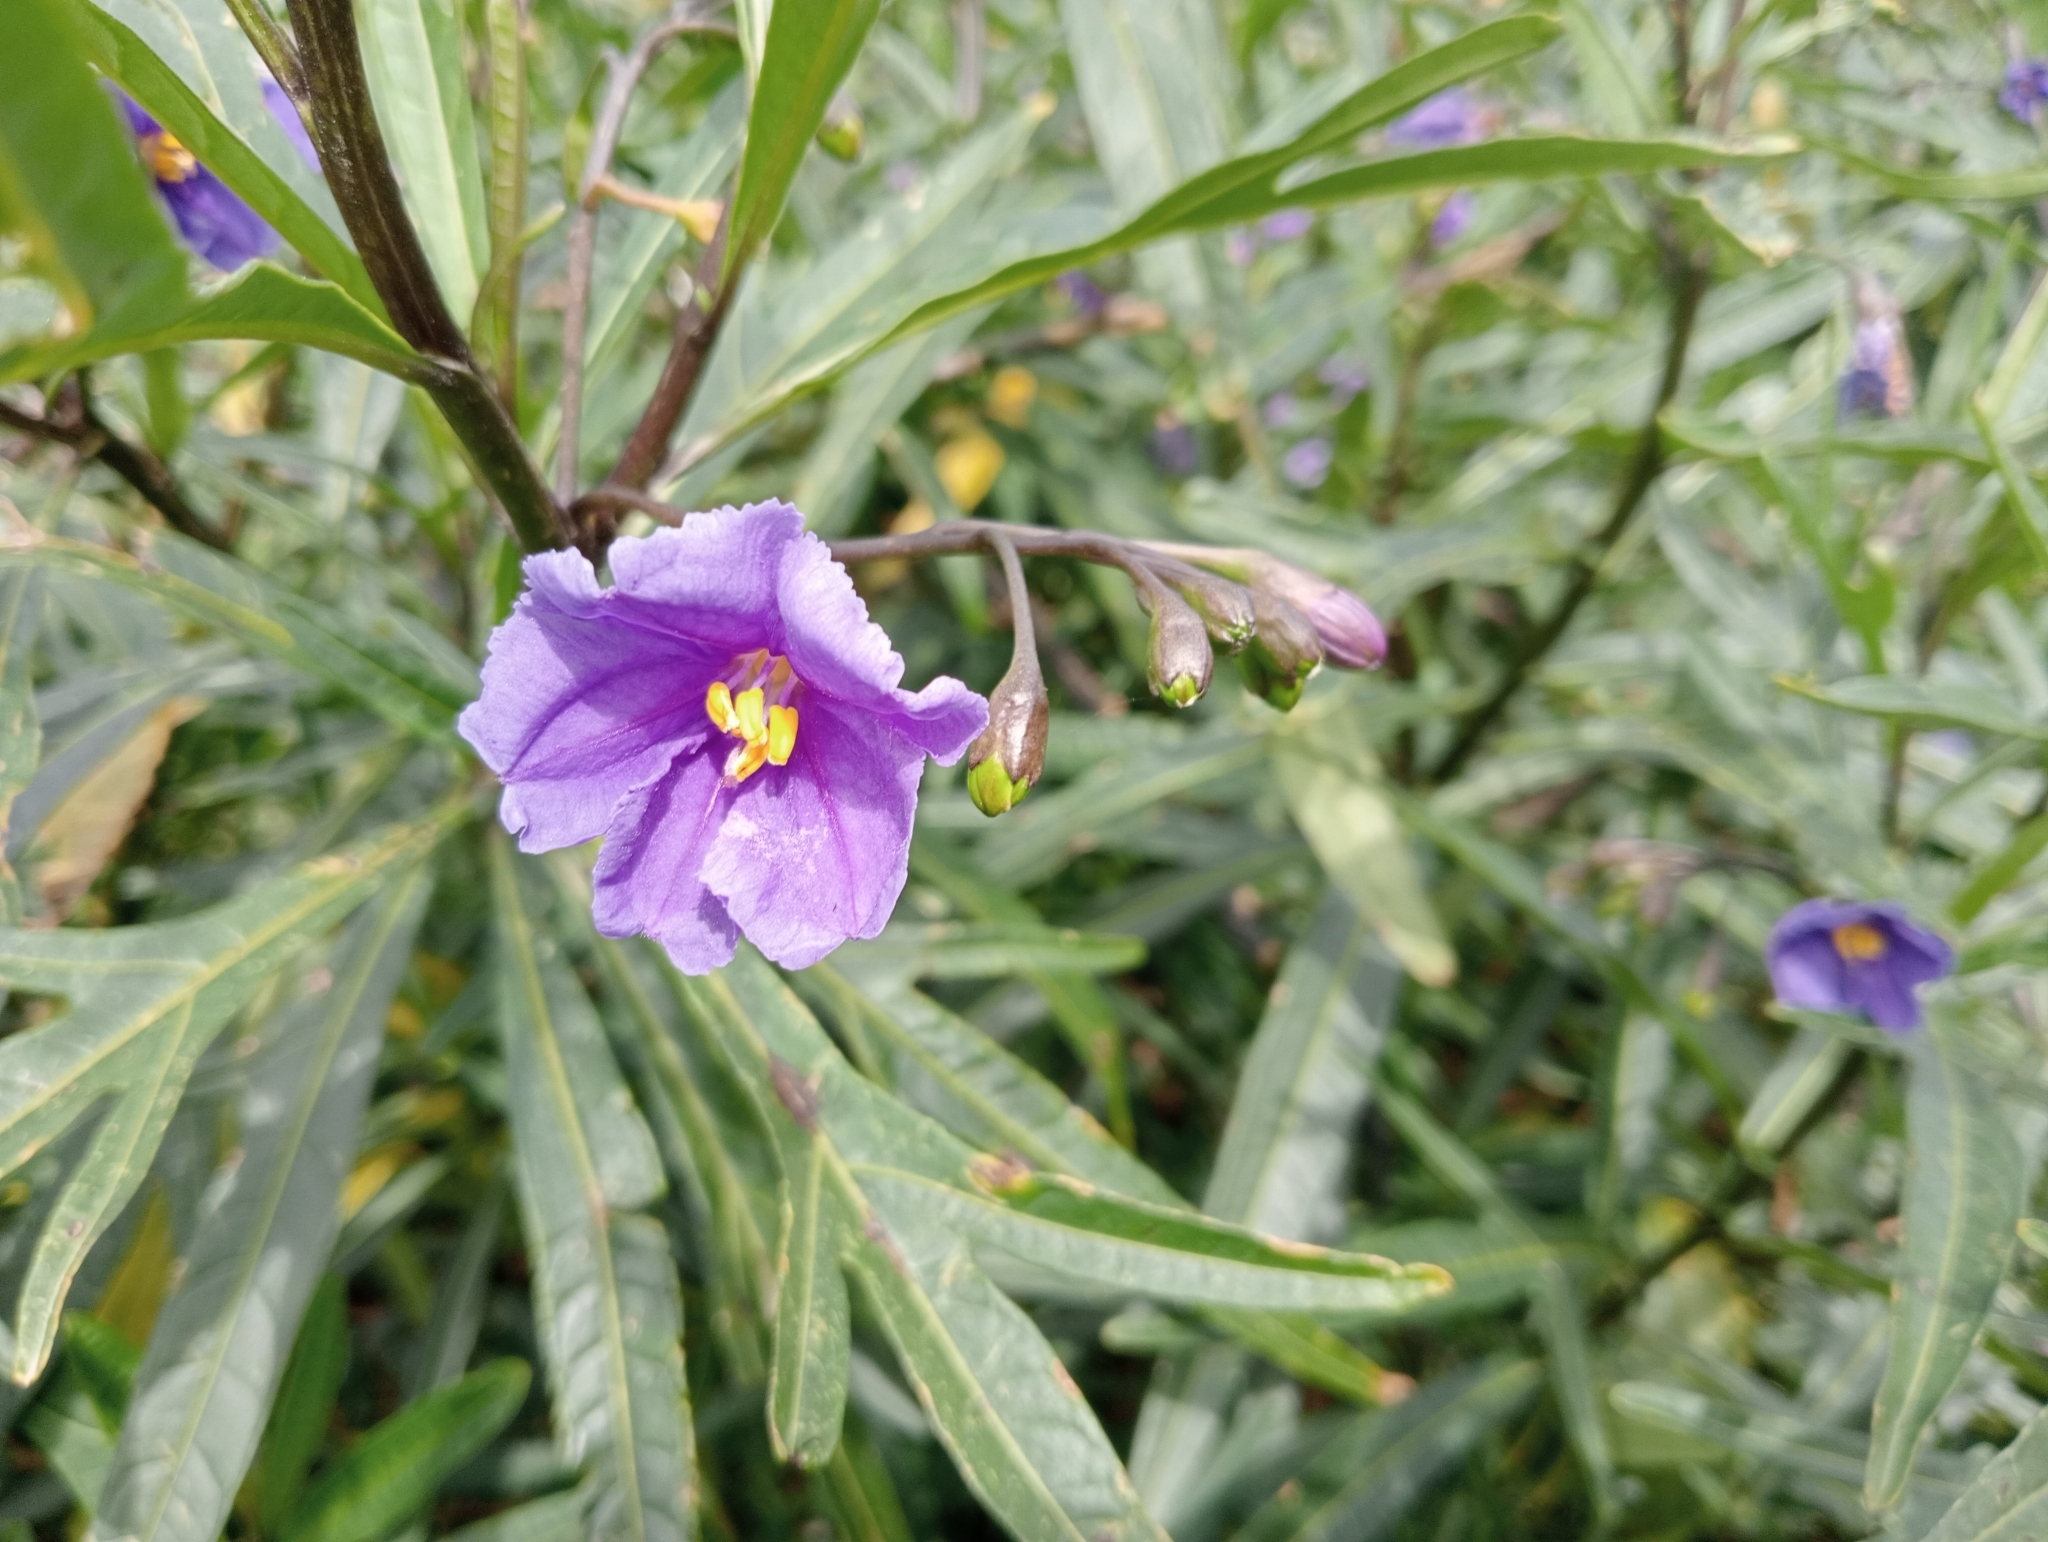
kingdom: Plantae
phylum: Tracheophyta
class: Magnoliopsida
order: Solanales
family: Solanaceae
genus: Solanum
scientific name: Solanum laciniatum
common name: Kangaroo-apple
